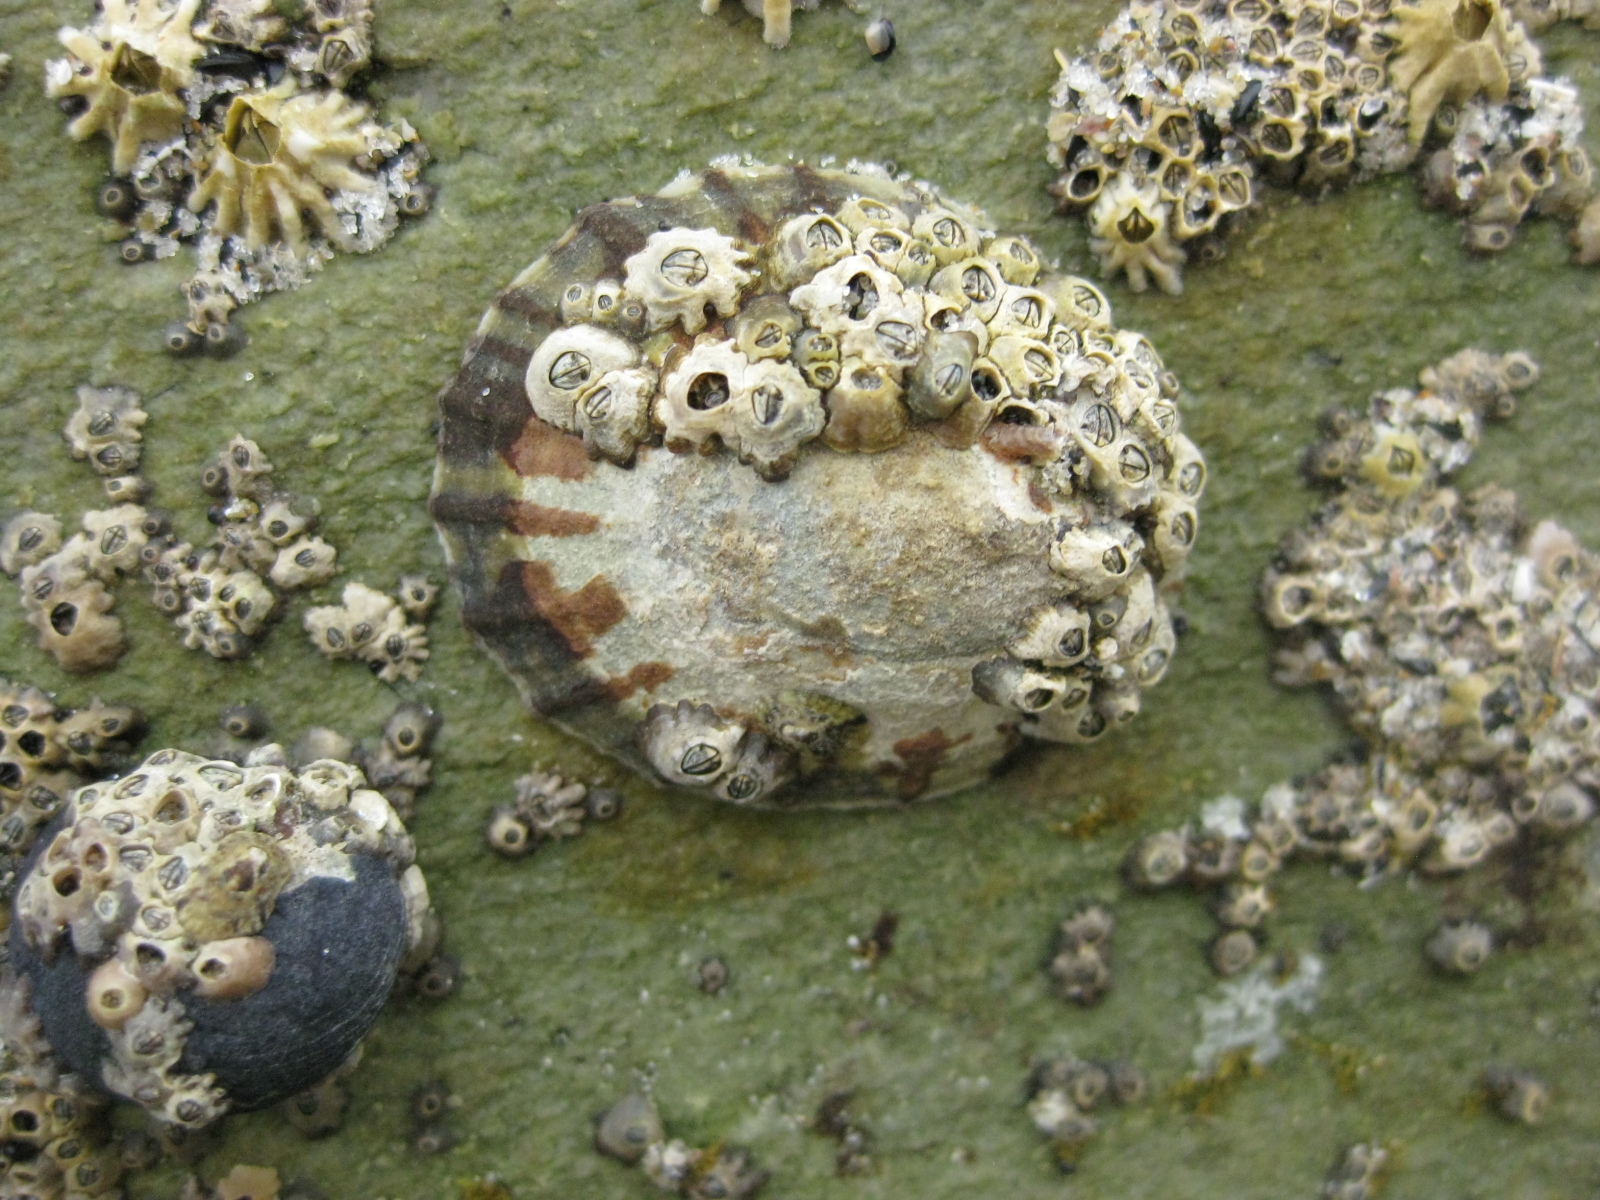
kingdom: Animalia
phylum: Arthropoda
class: Maxillopoda
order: Sessilia
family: Chthamalidae
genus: Chamaesipho
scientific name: Chamaesipho columna
